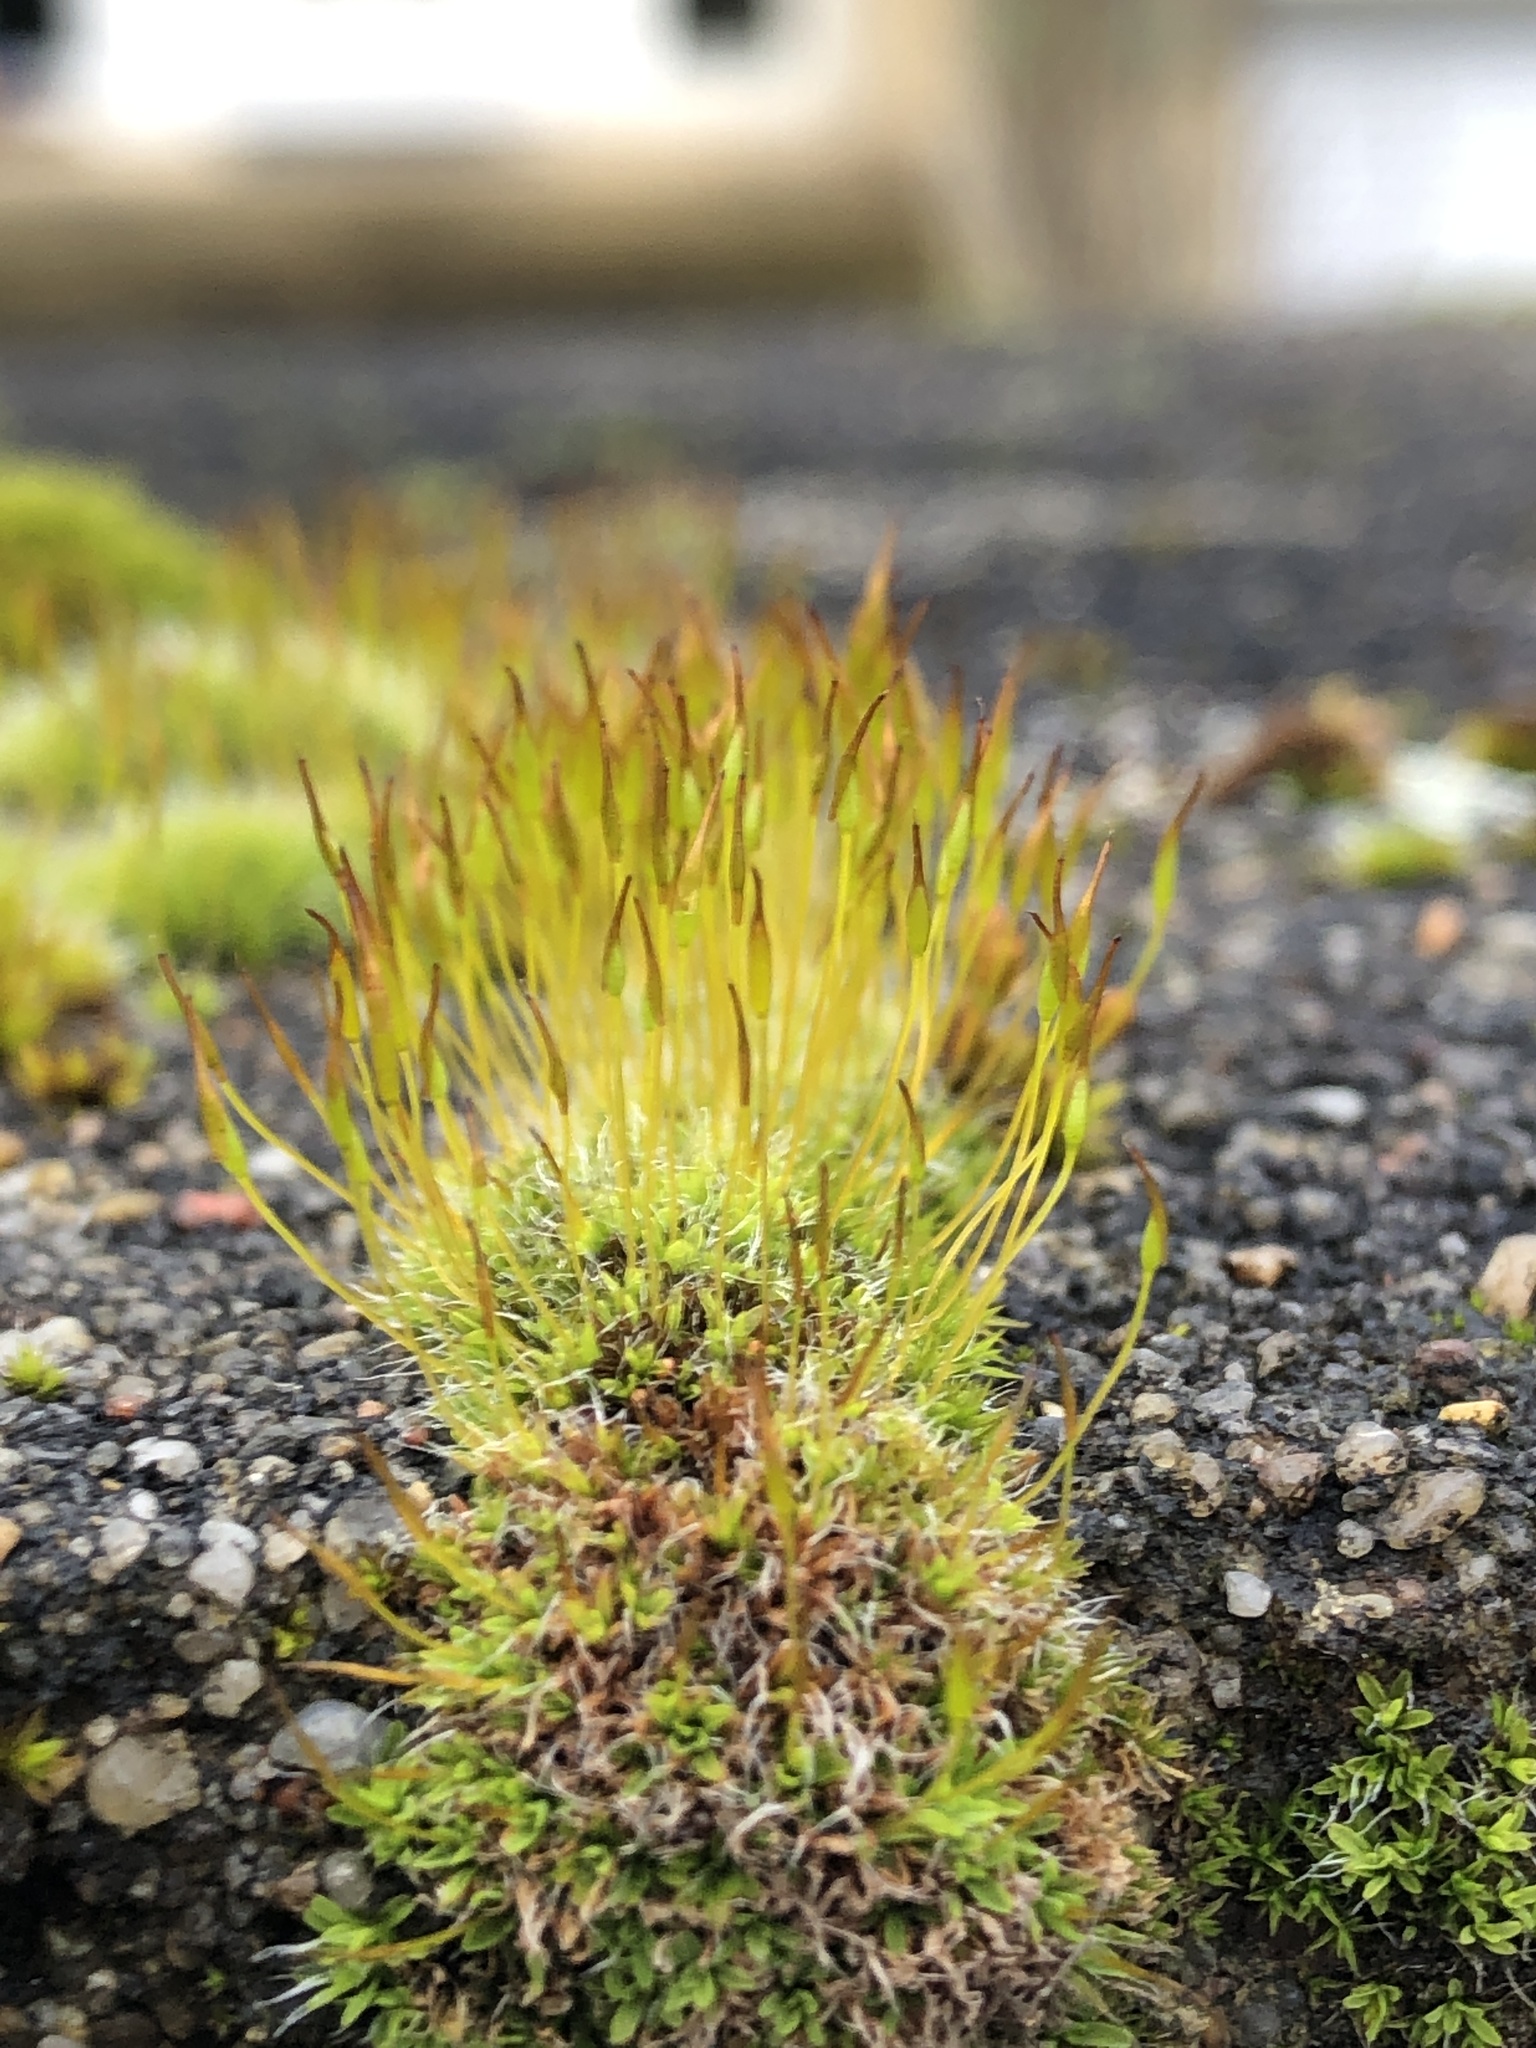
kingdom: Plantae
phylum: Bryophyta
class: Bryopsida
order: Pottiales
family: Pottiaceae
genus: Tortula
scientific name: Tortula muralis
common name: Wall screw-moss
